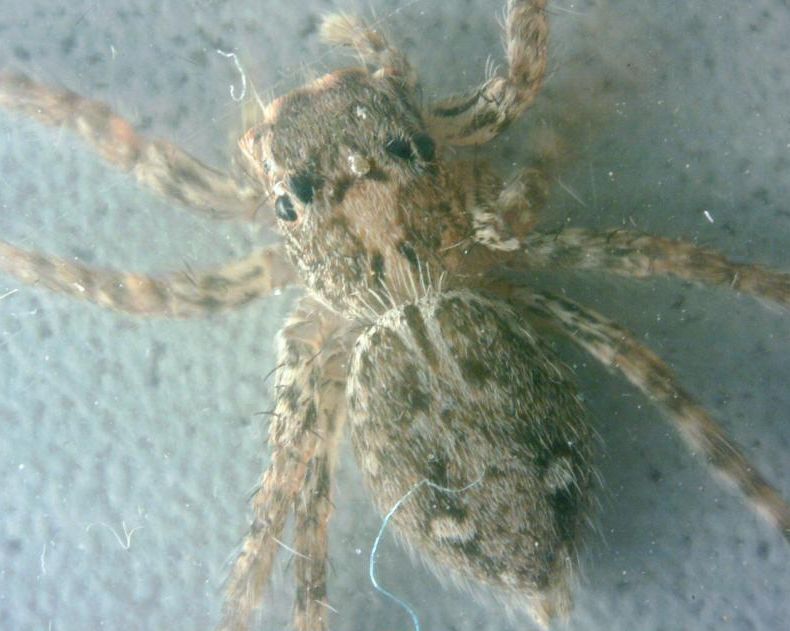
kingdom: Animalia
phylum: Arthropoda
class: Arachnida
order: Araneae
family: Salticidae
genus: Plexippus
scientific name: Plexippus petersi
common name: Jumping spider
